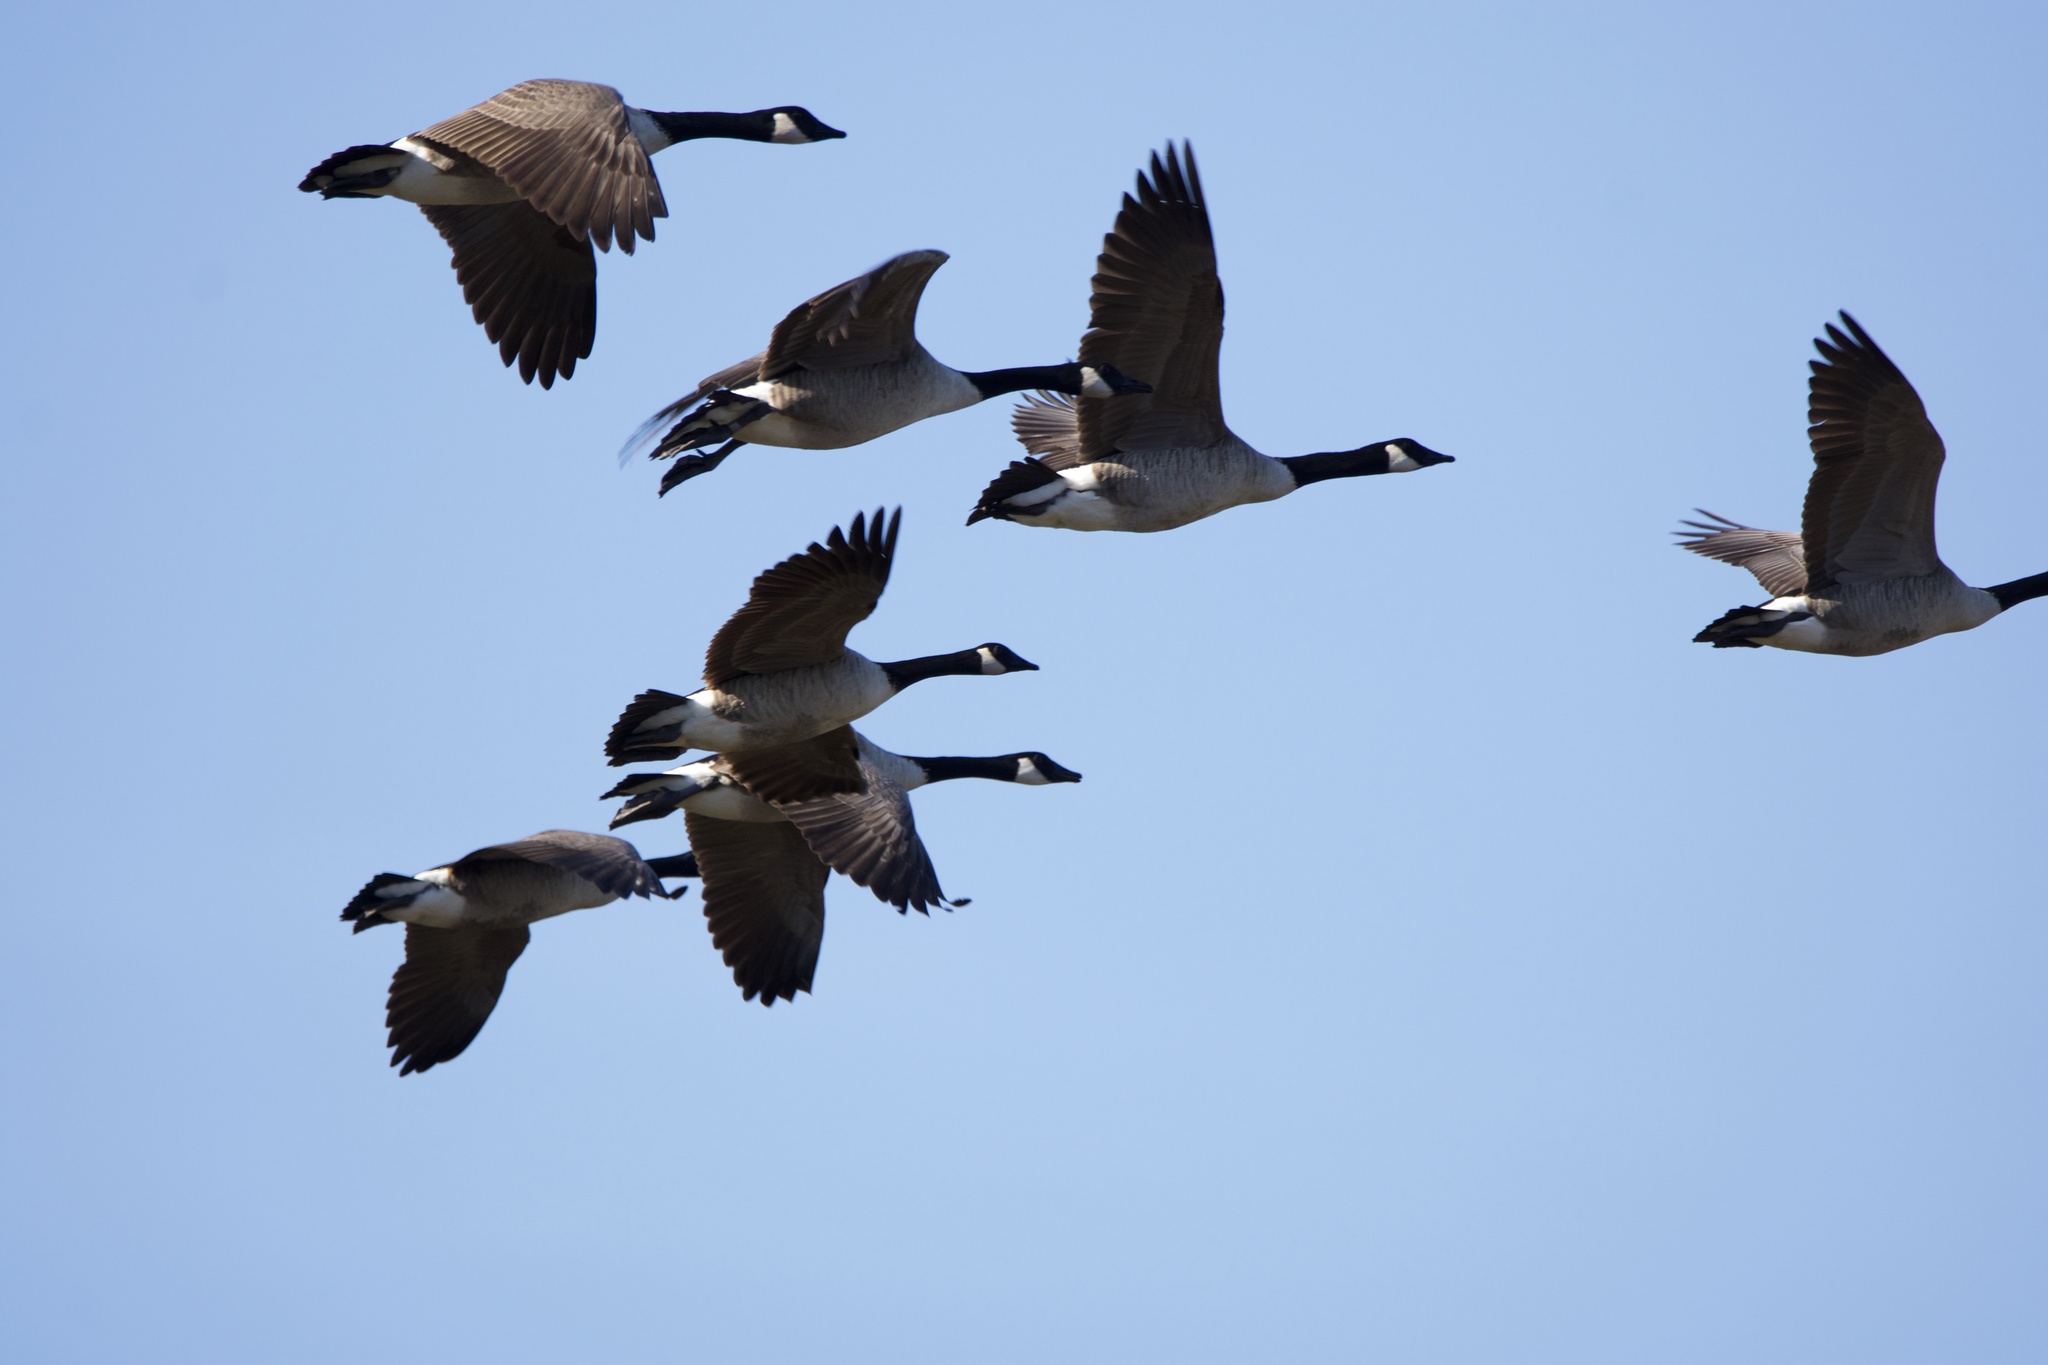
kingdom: Animalia
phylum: Chordata
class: Aves
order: Anseriformes
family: Anatidae
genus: Branta
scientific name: Branta canadensis
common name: Canada goose
